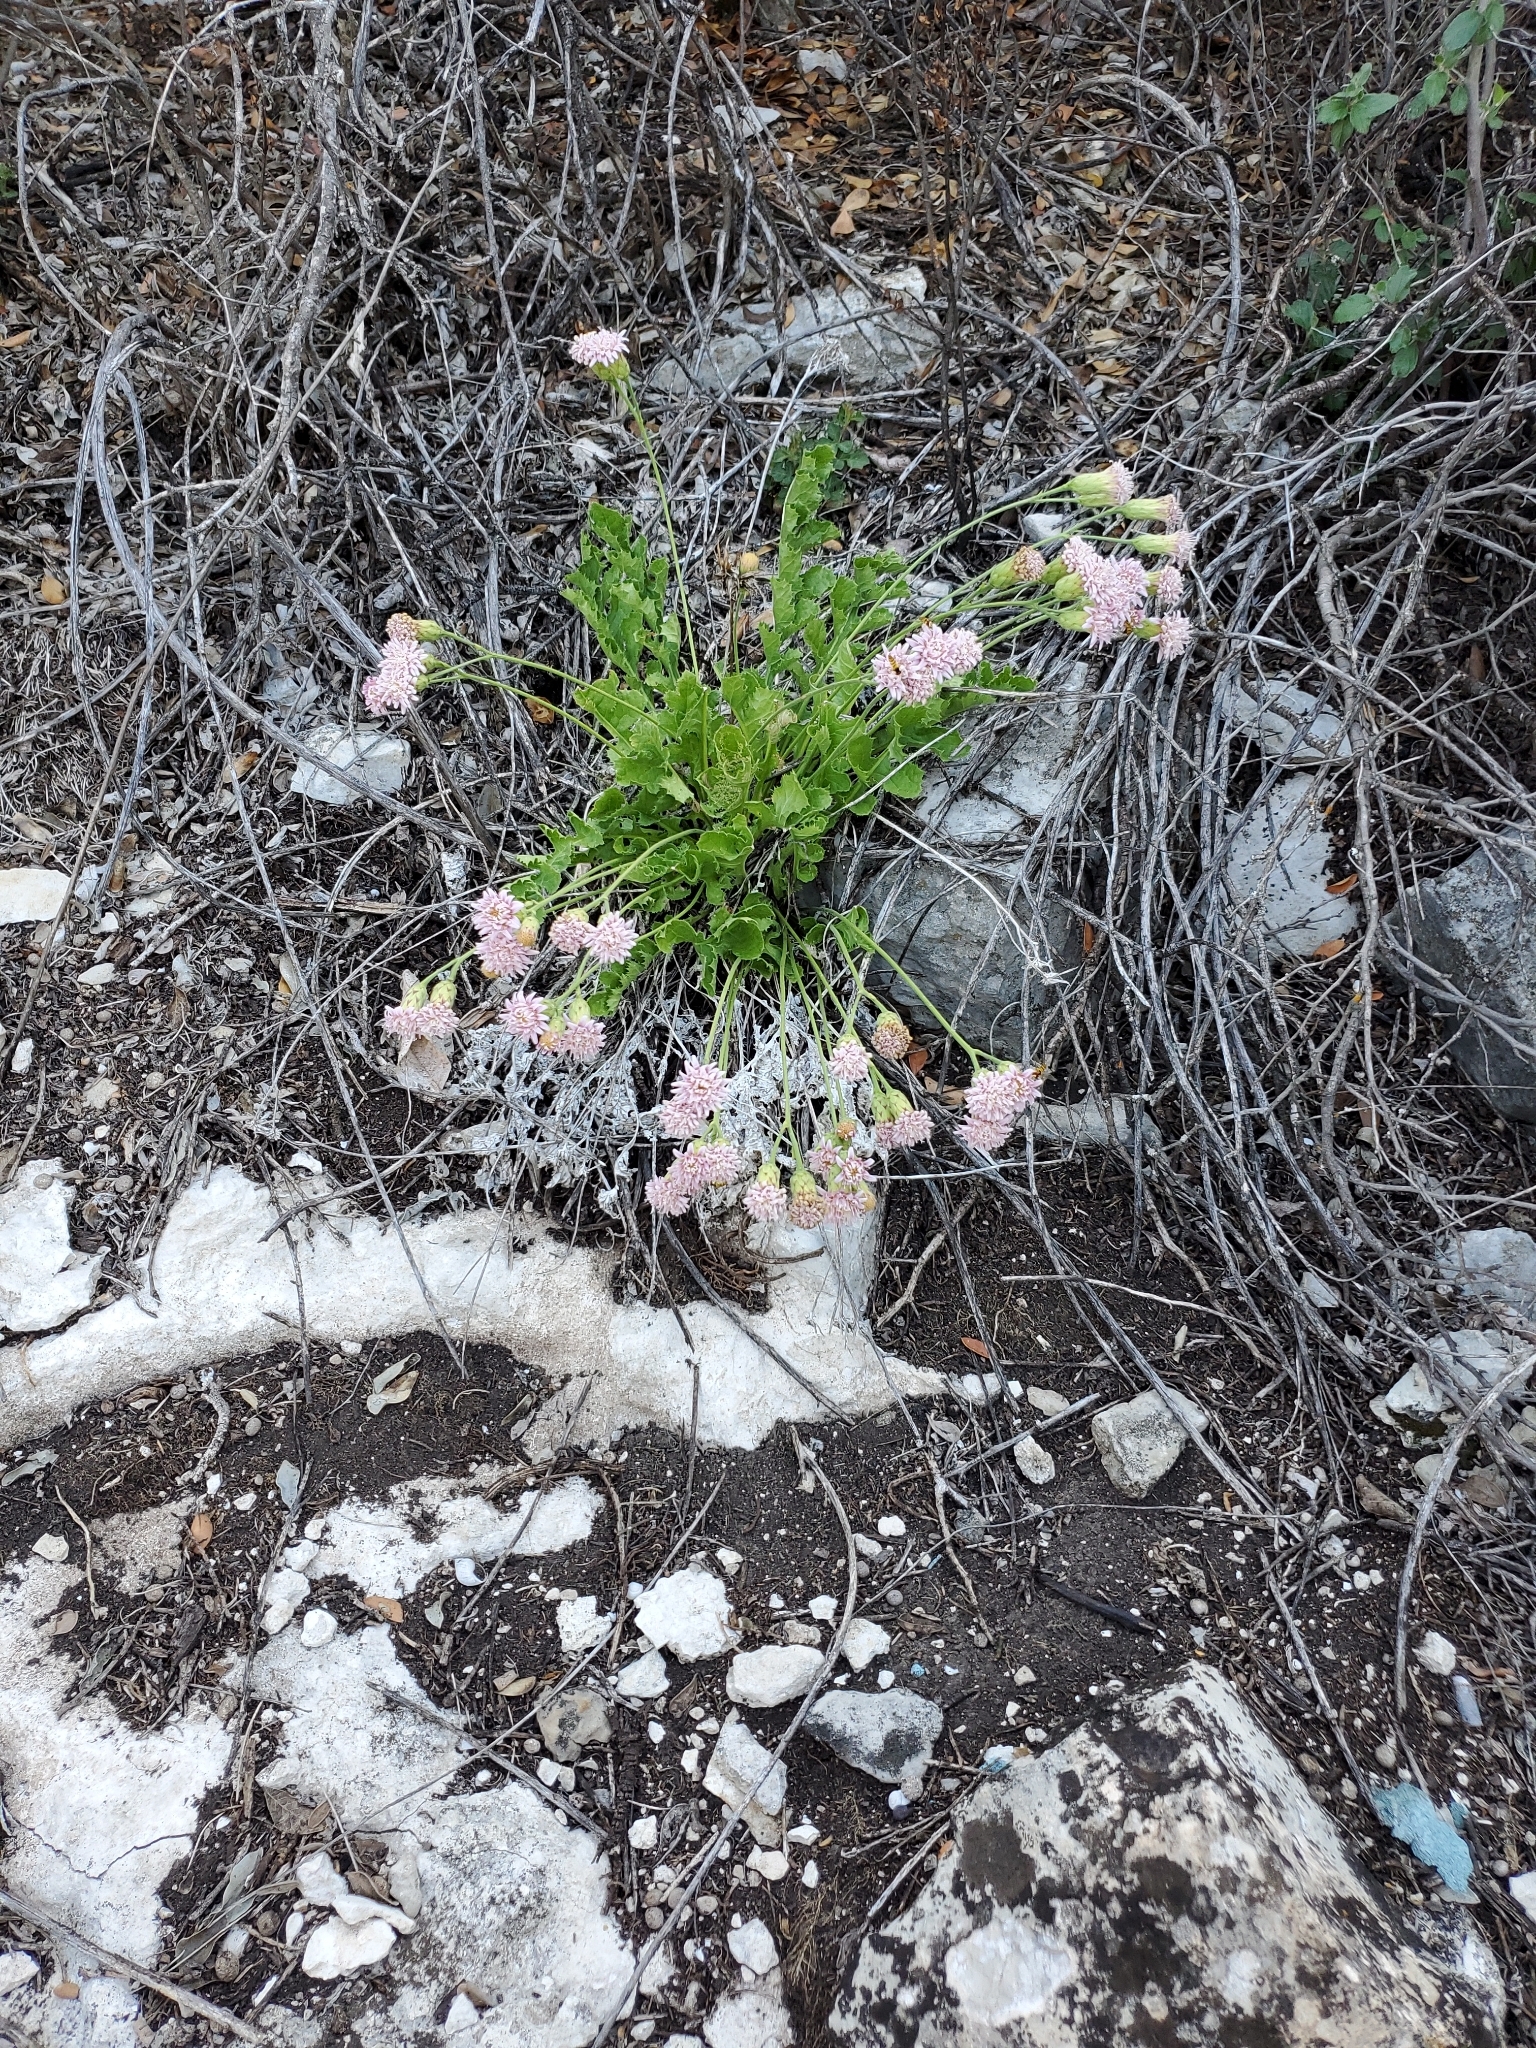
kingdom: Plantae
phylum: Tracheophyta
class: Magnoliopsida
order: Asterales
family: Asteraceae
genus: Acourtia
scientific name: Acourtia runcinata
